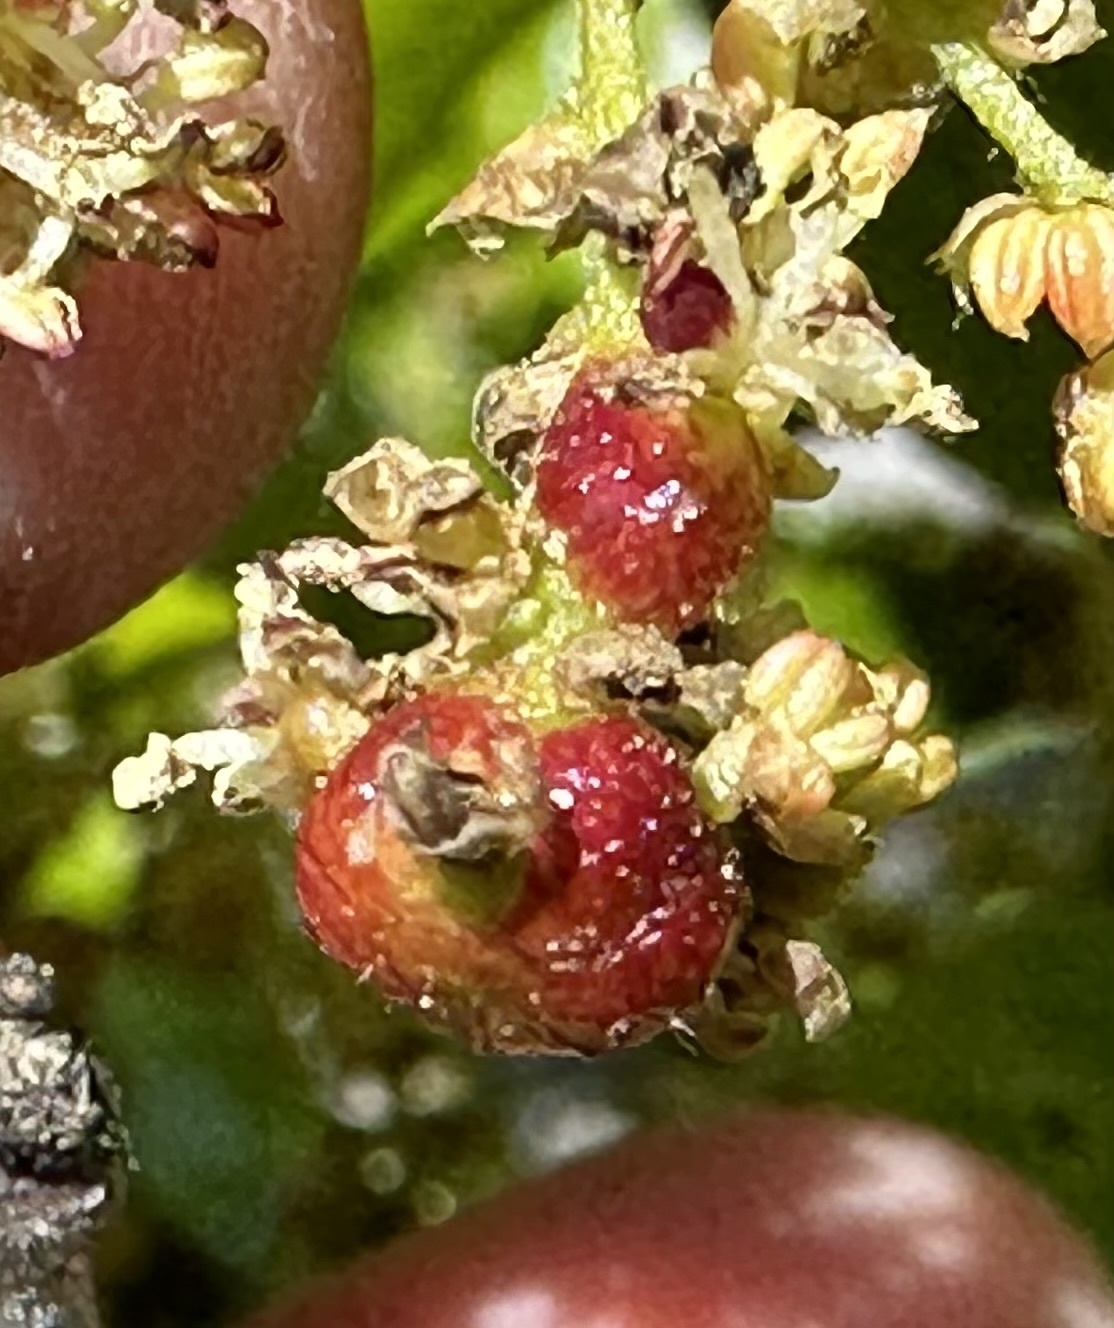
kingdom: Animalia
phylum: Arthropoda
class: Insecta
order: Hymenoptera
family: Cynipidae
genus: Callirhytis
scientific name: Callirhytis
